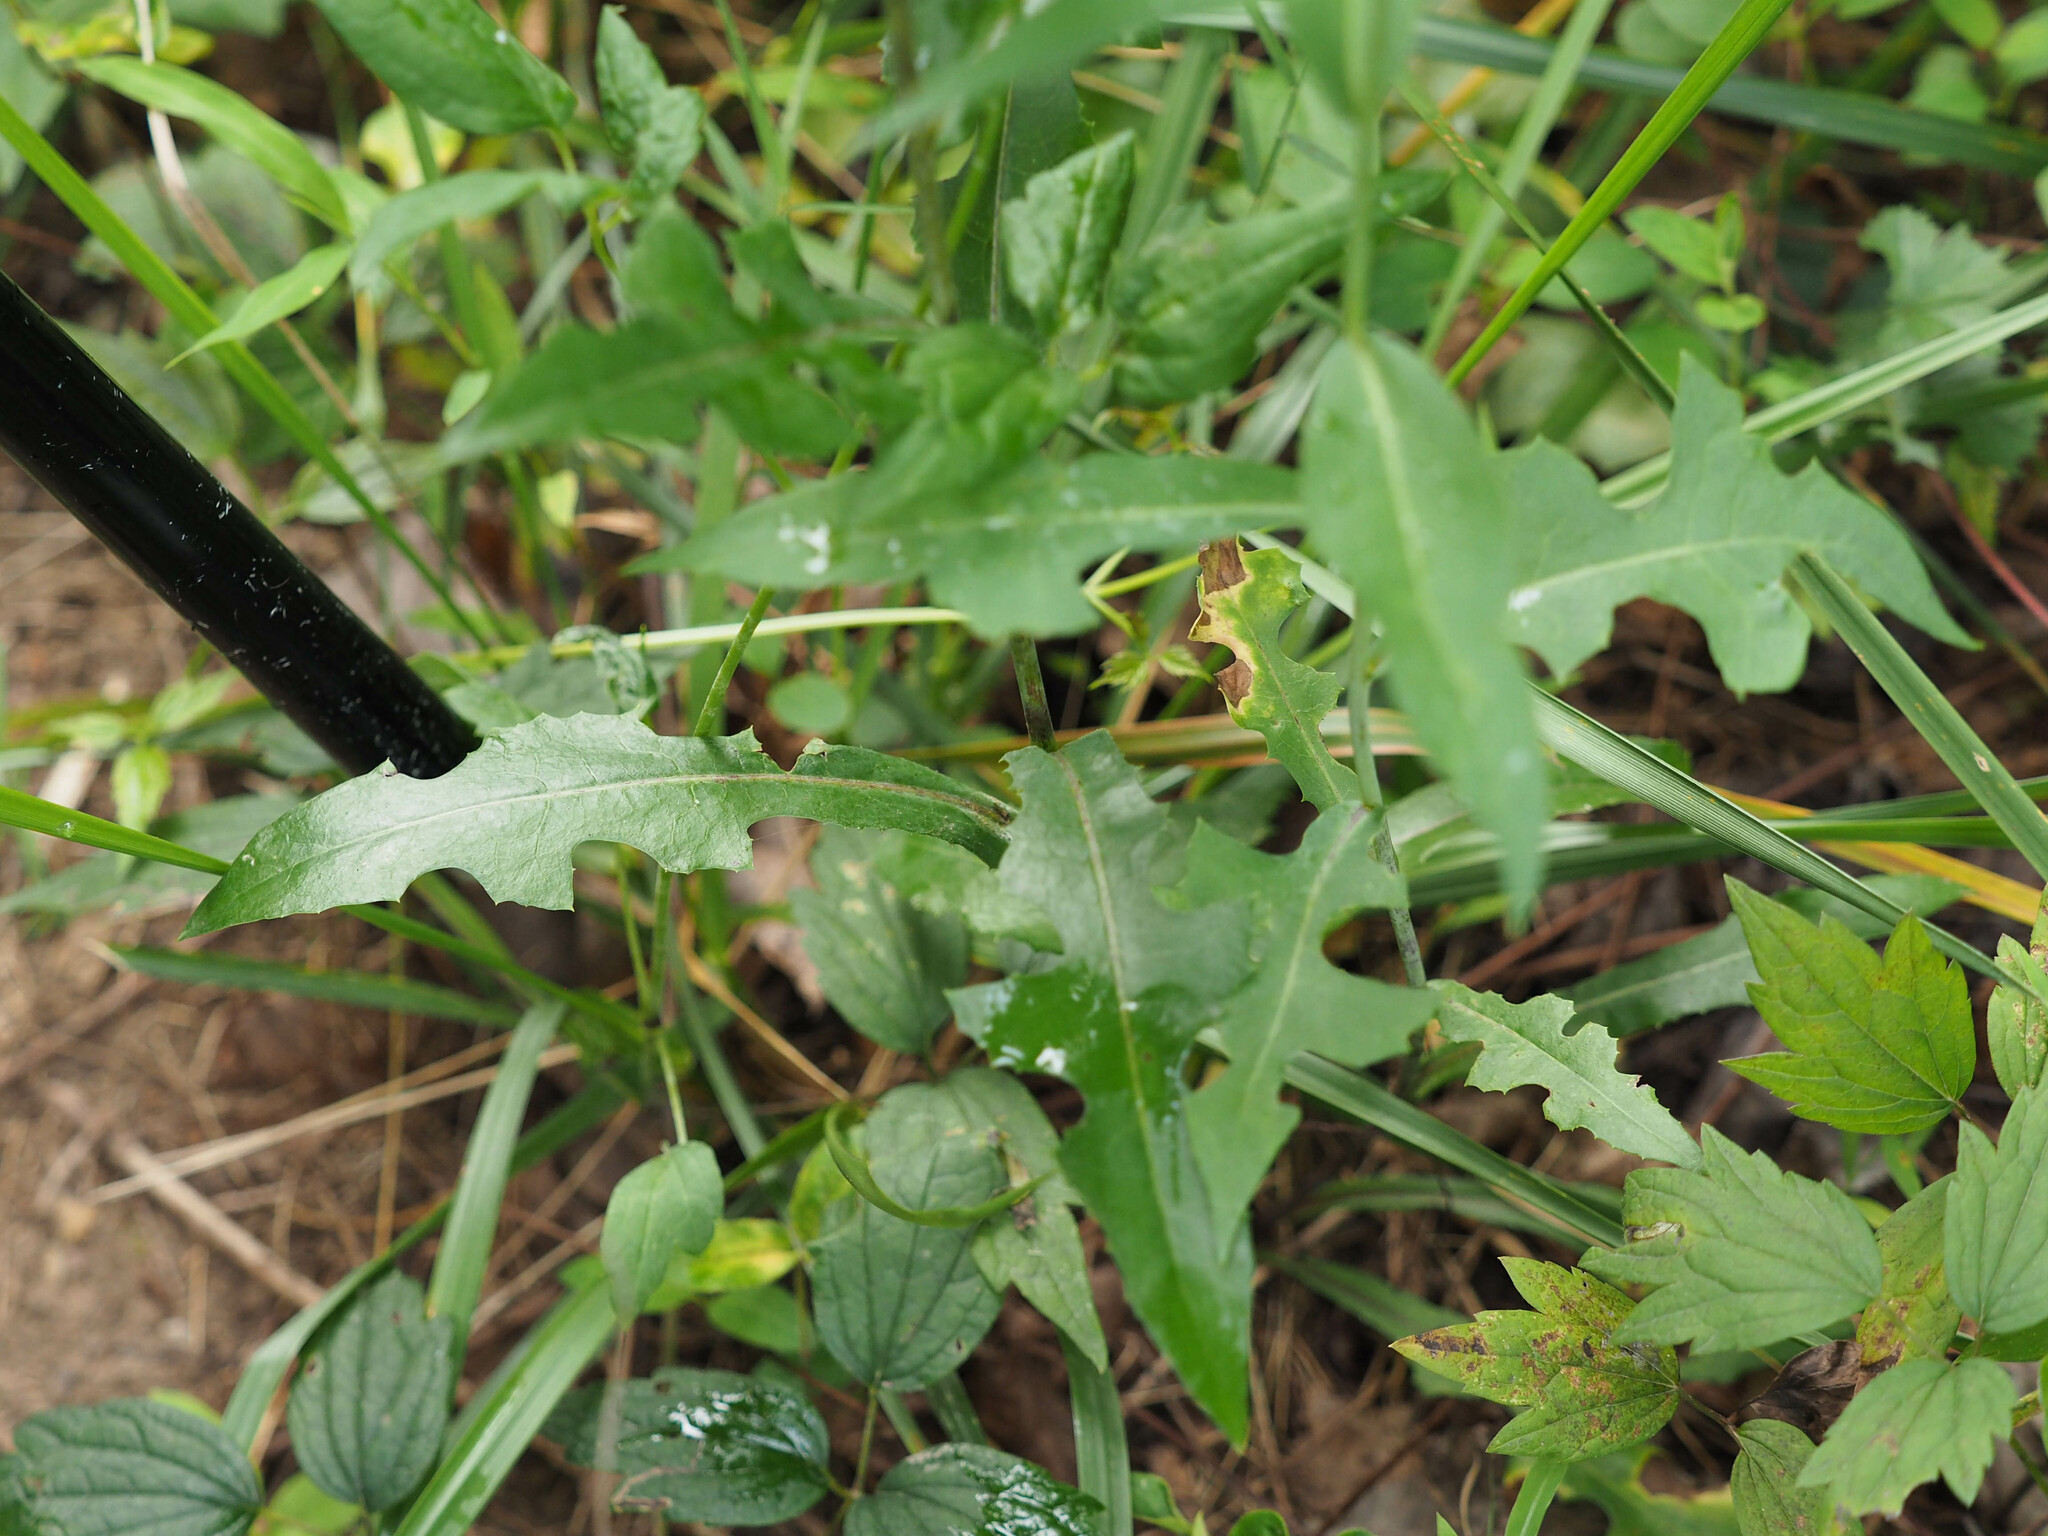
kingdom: Plantae
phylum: Tracheophyta
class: Magnoliopsida
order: Asterales
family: Asteraceae
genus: Lactuca
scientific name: Lactuca canadensis
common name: Canada lettuce
